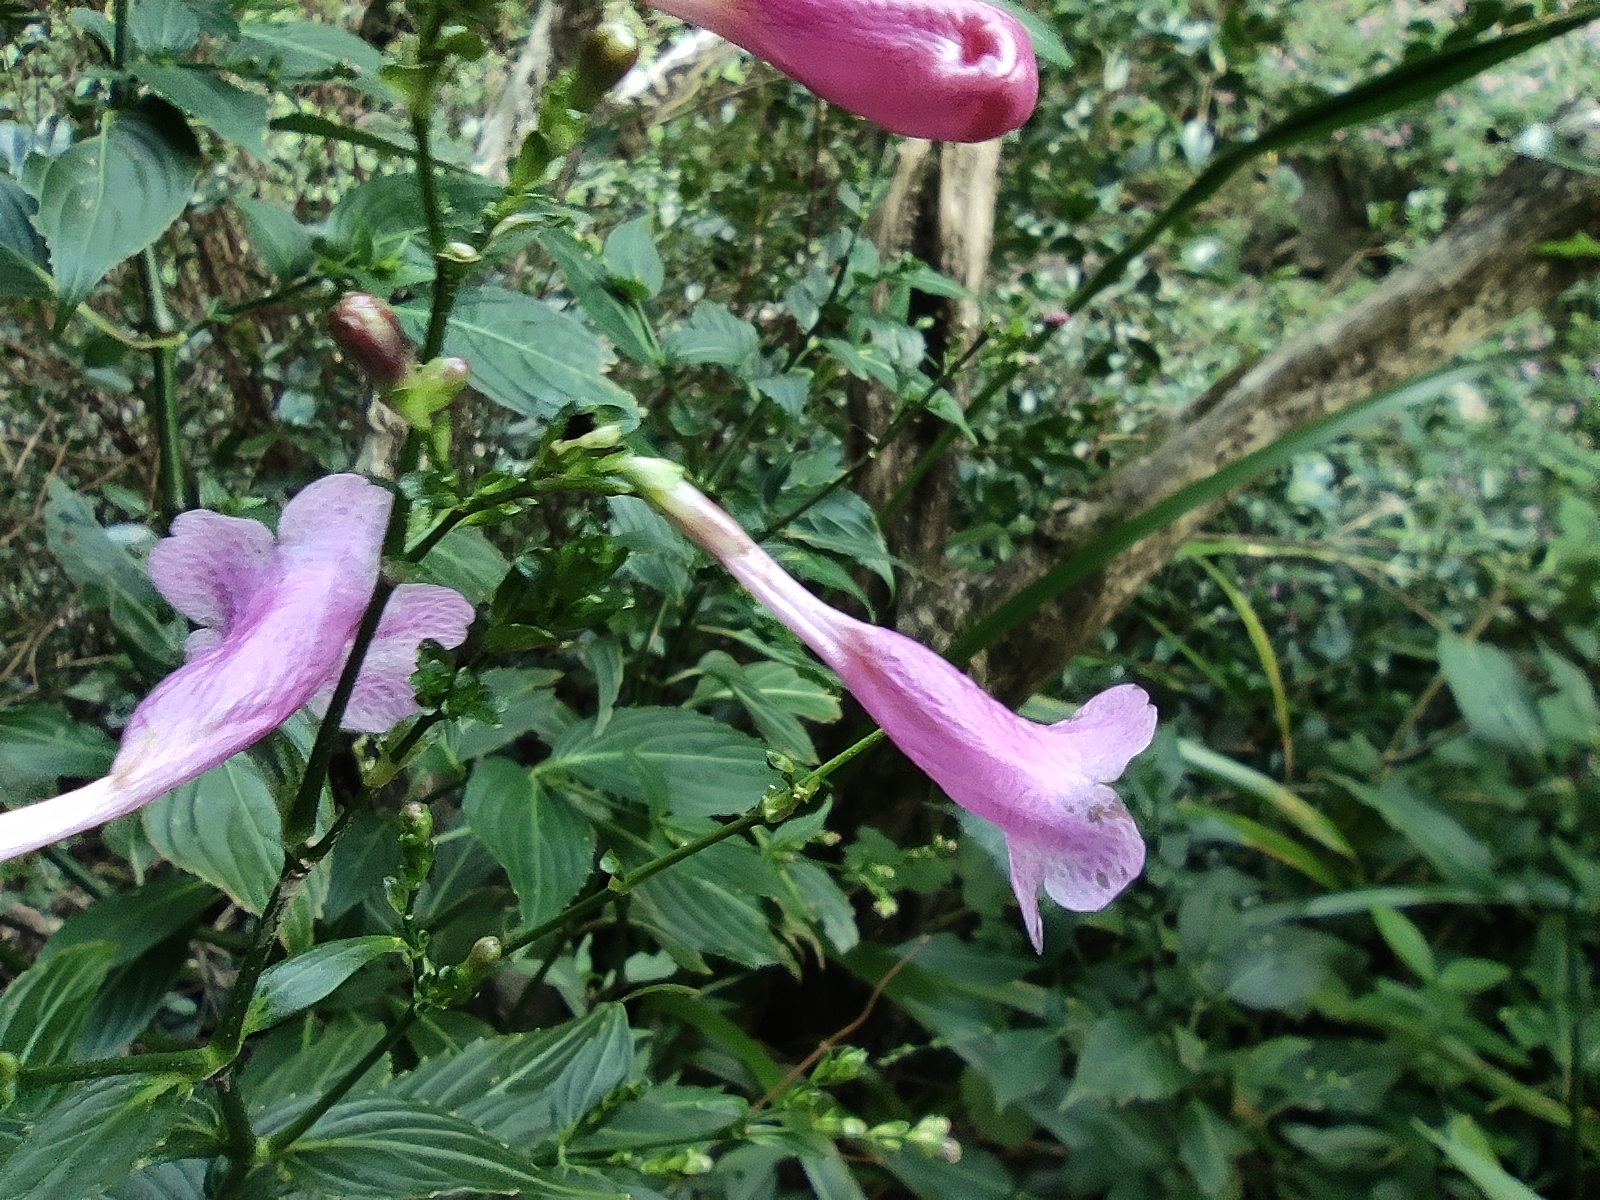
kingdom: Plantae
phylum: Tracheophyta
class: Magnoliopsida
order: Lamiales
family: Acanthaceae
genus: Strobilanthes
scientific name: Strobilanthes hamiltoniana
